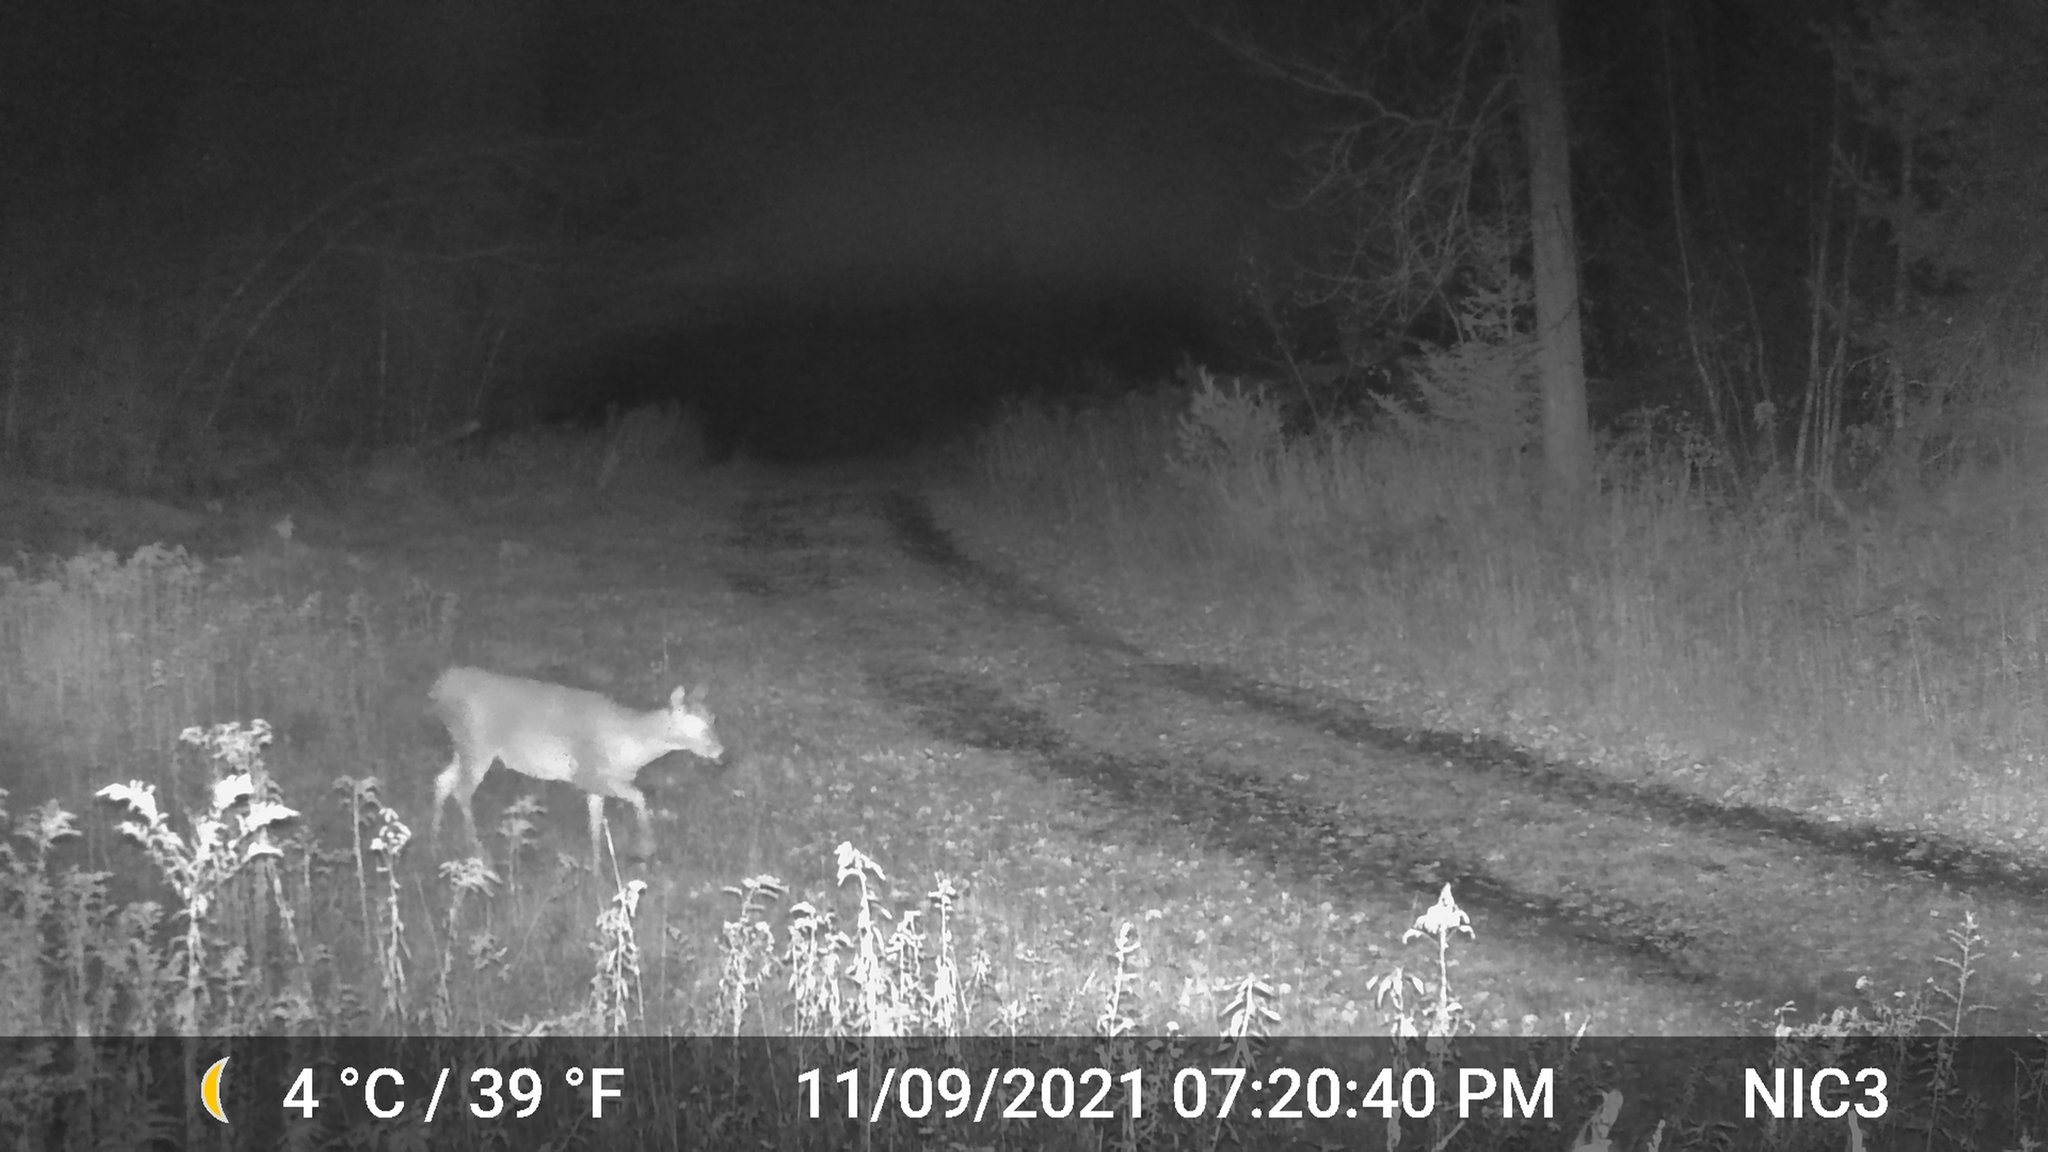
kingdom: Animalia
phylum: Chordata
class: Mammalia
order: Artiodactyla
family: Cervidae
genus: Odocoileus
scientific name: Odocoileus virginianus
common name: White-tailed deer
